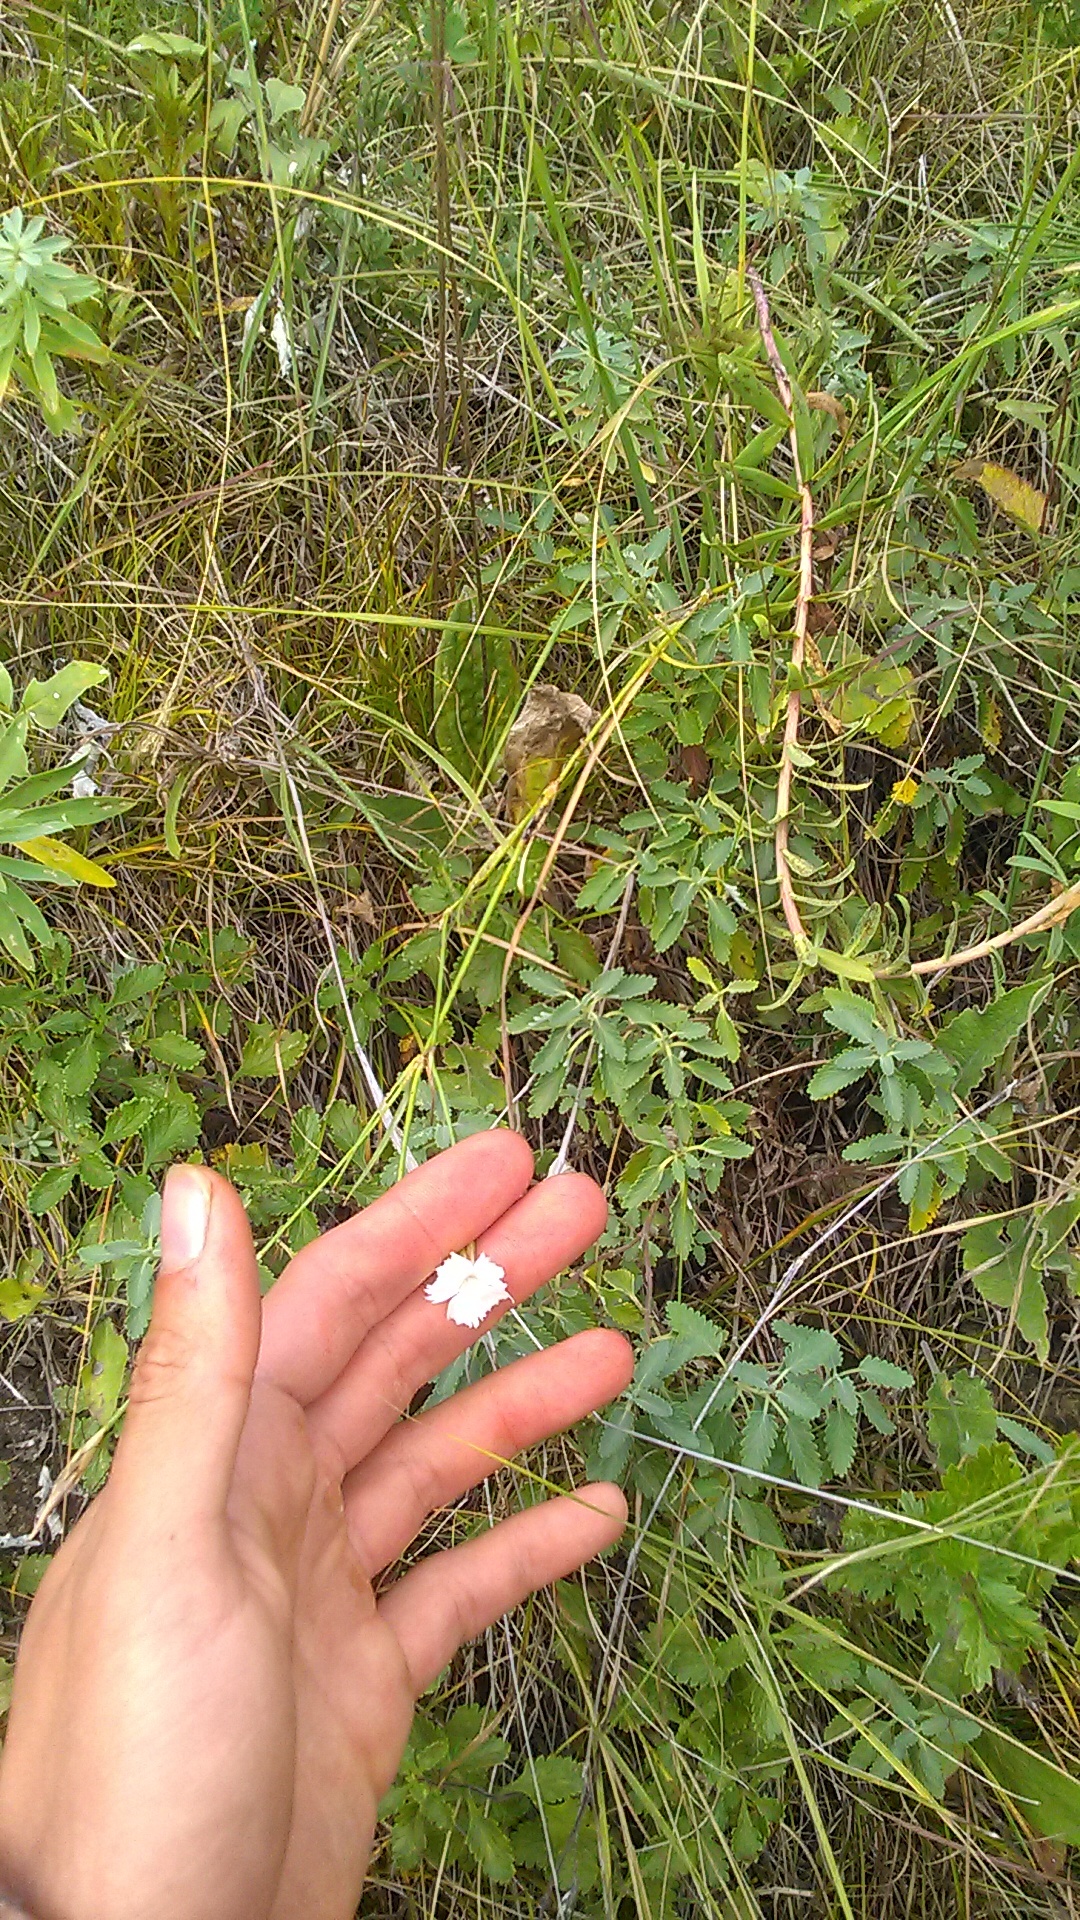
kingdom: Plantae
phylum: Tracheophyta
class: Magnoliopsida
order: Caryophyllales
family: Caryophyllaceae
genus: Dianthus
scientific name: Dianthus fragrans
